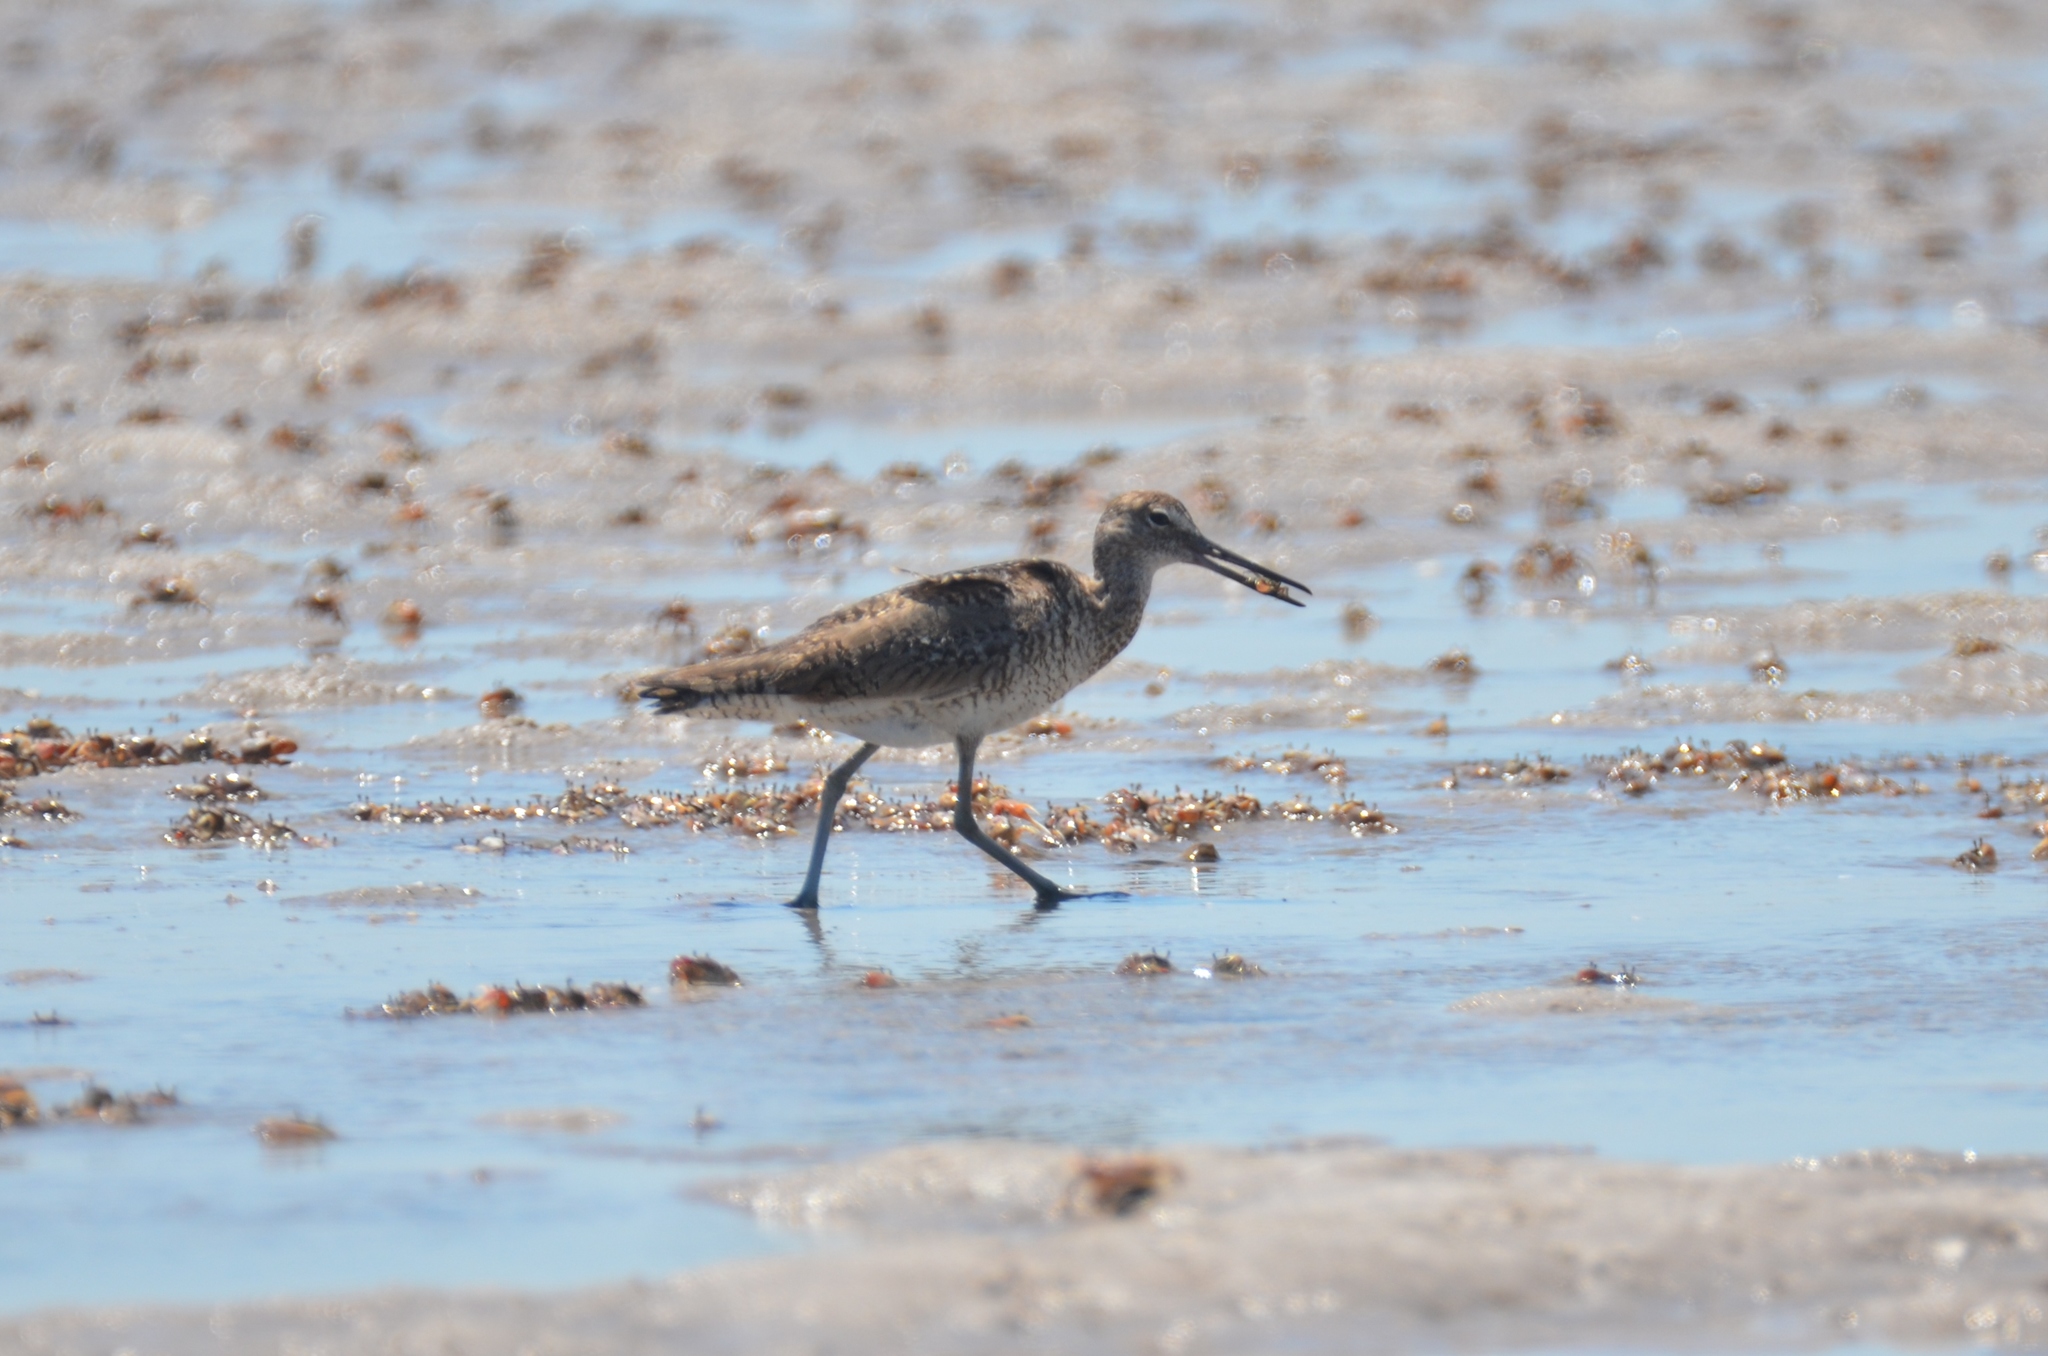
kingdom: Animalia
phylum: Chordata
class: Aves
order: Charadriiformes
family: Scolopacidae
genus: Tringa
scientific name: Tringa semipalmata
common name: Willet
